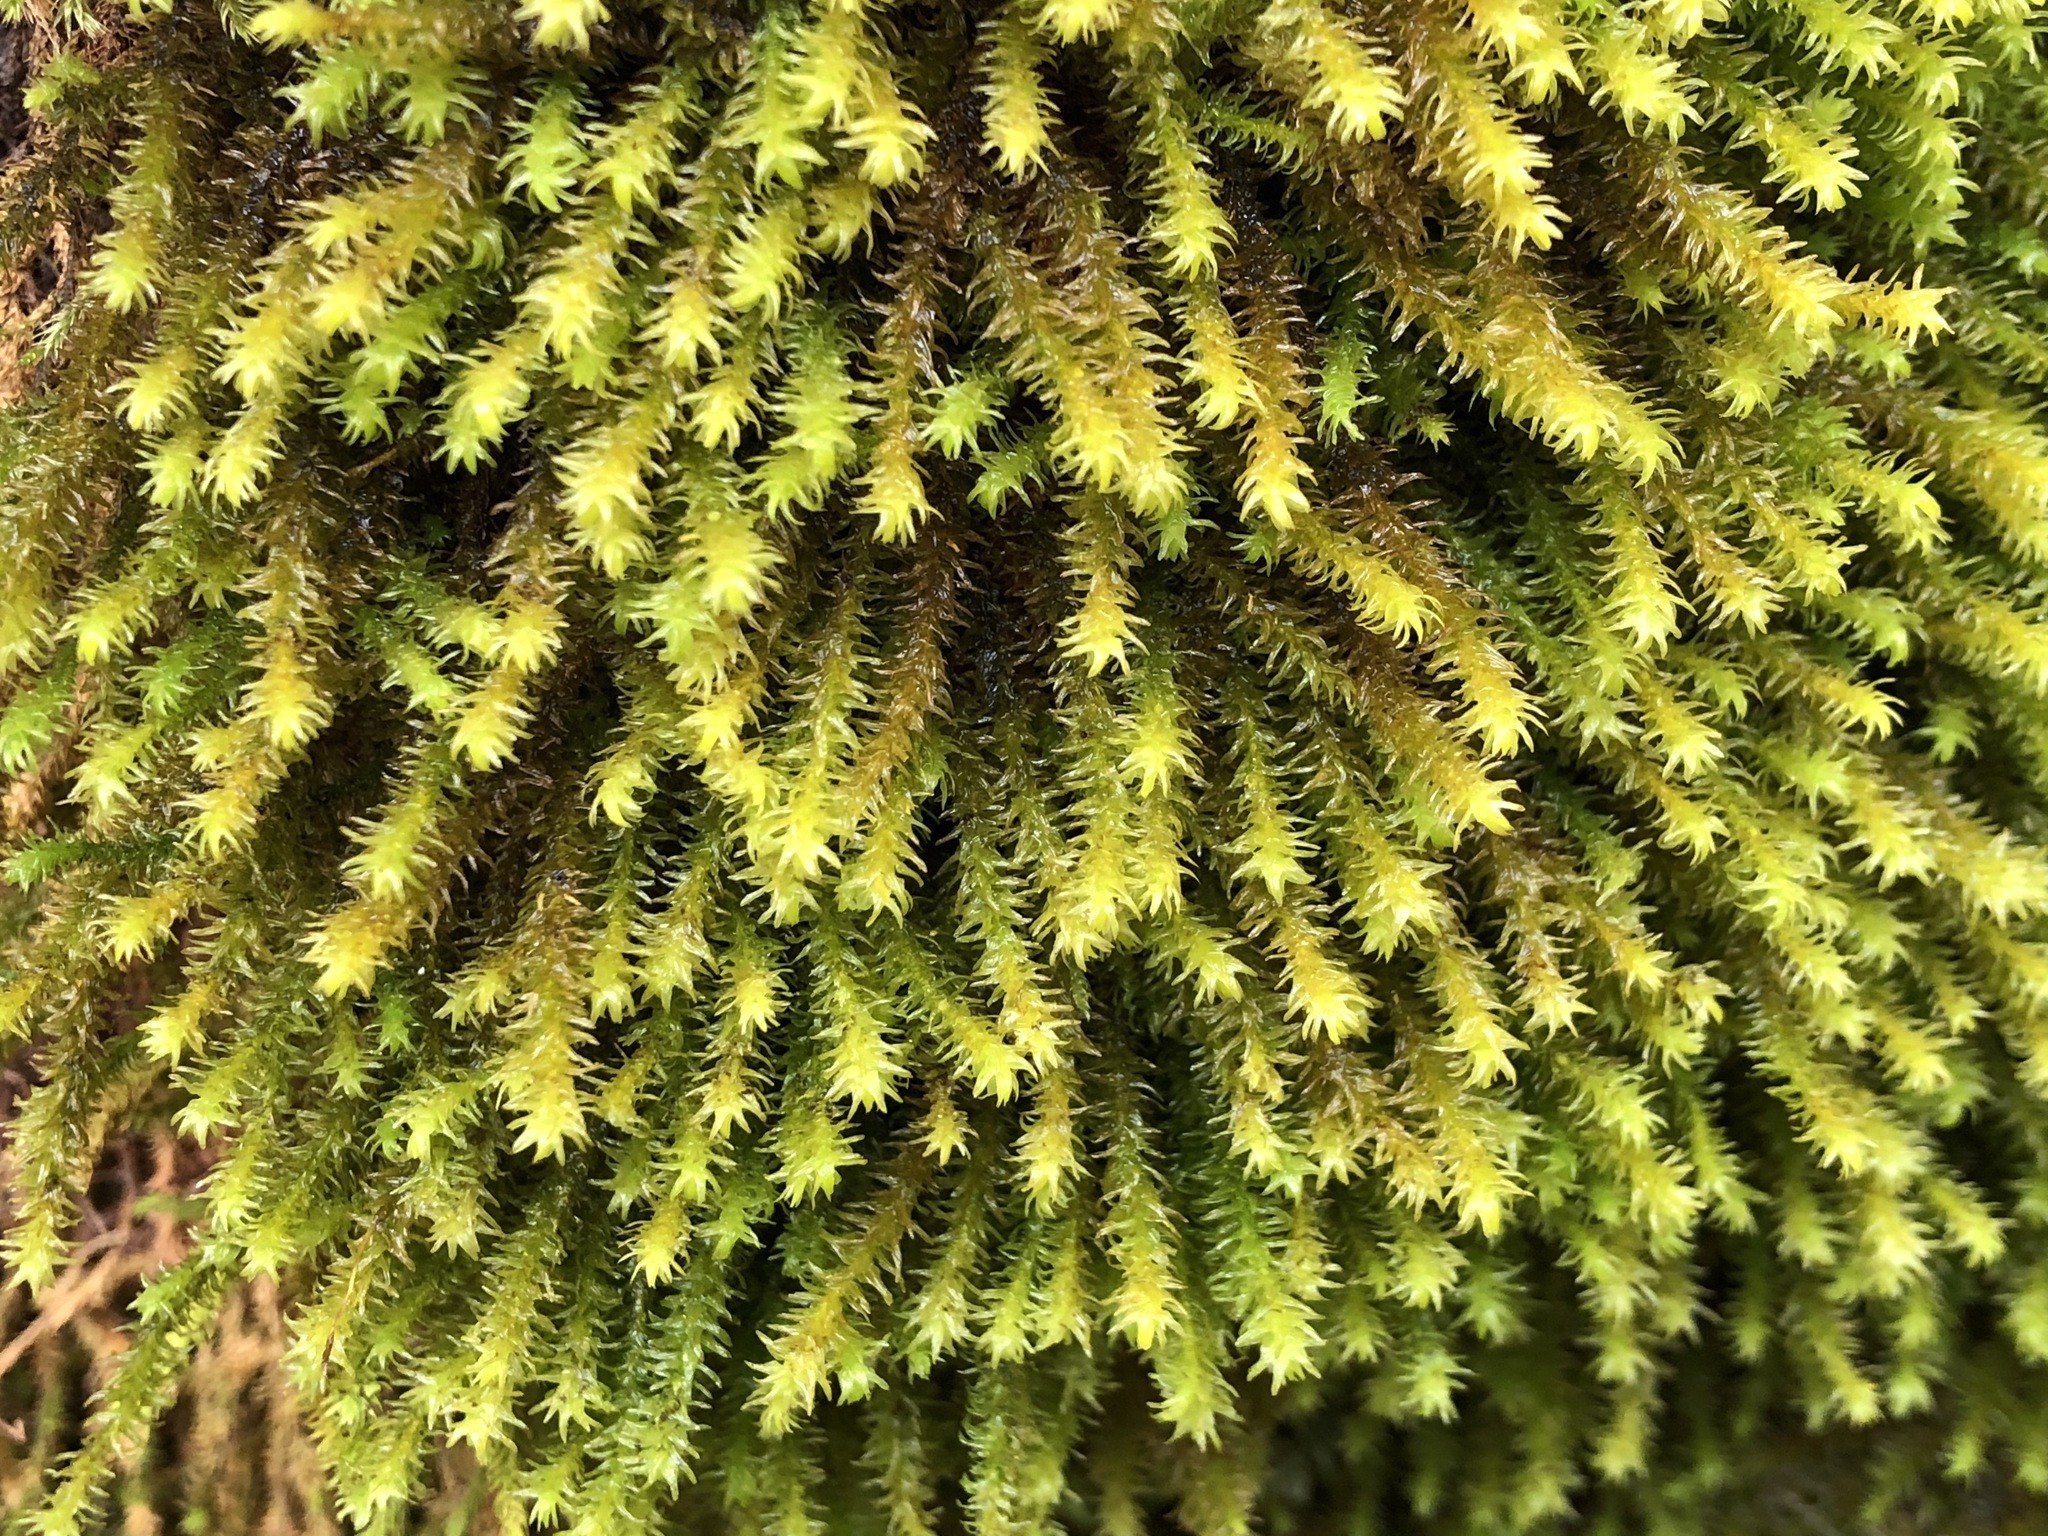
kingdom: Plantae
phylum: Bryophyta
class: Bryopsida
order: Hypnales
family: Anomodontaceae
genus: Anomodon
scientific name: Anomodon viticulosus
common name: Tall anomodon
